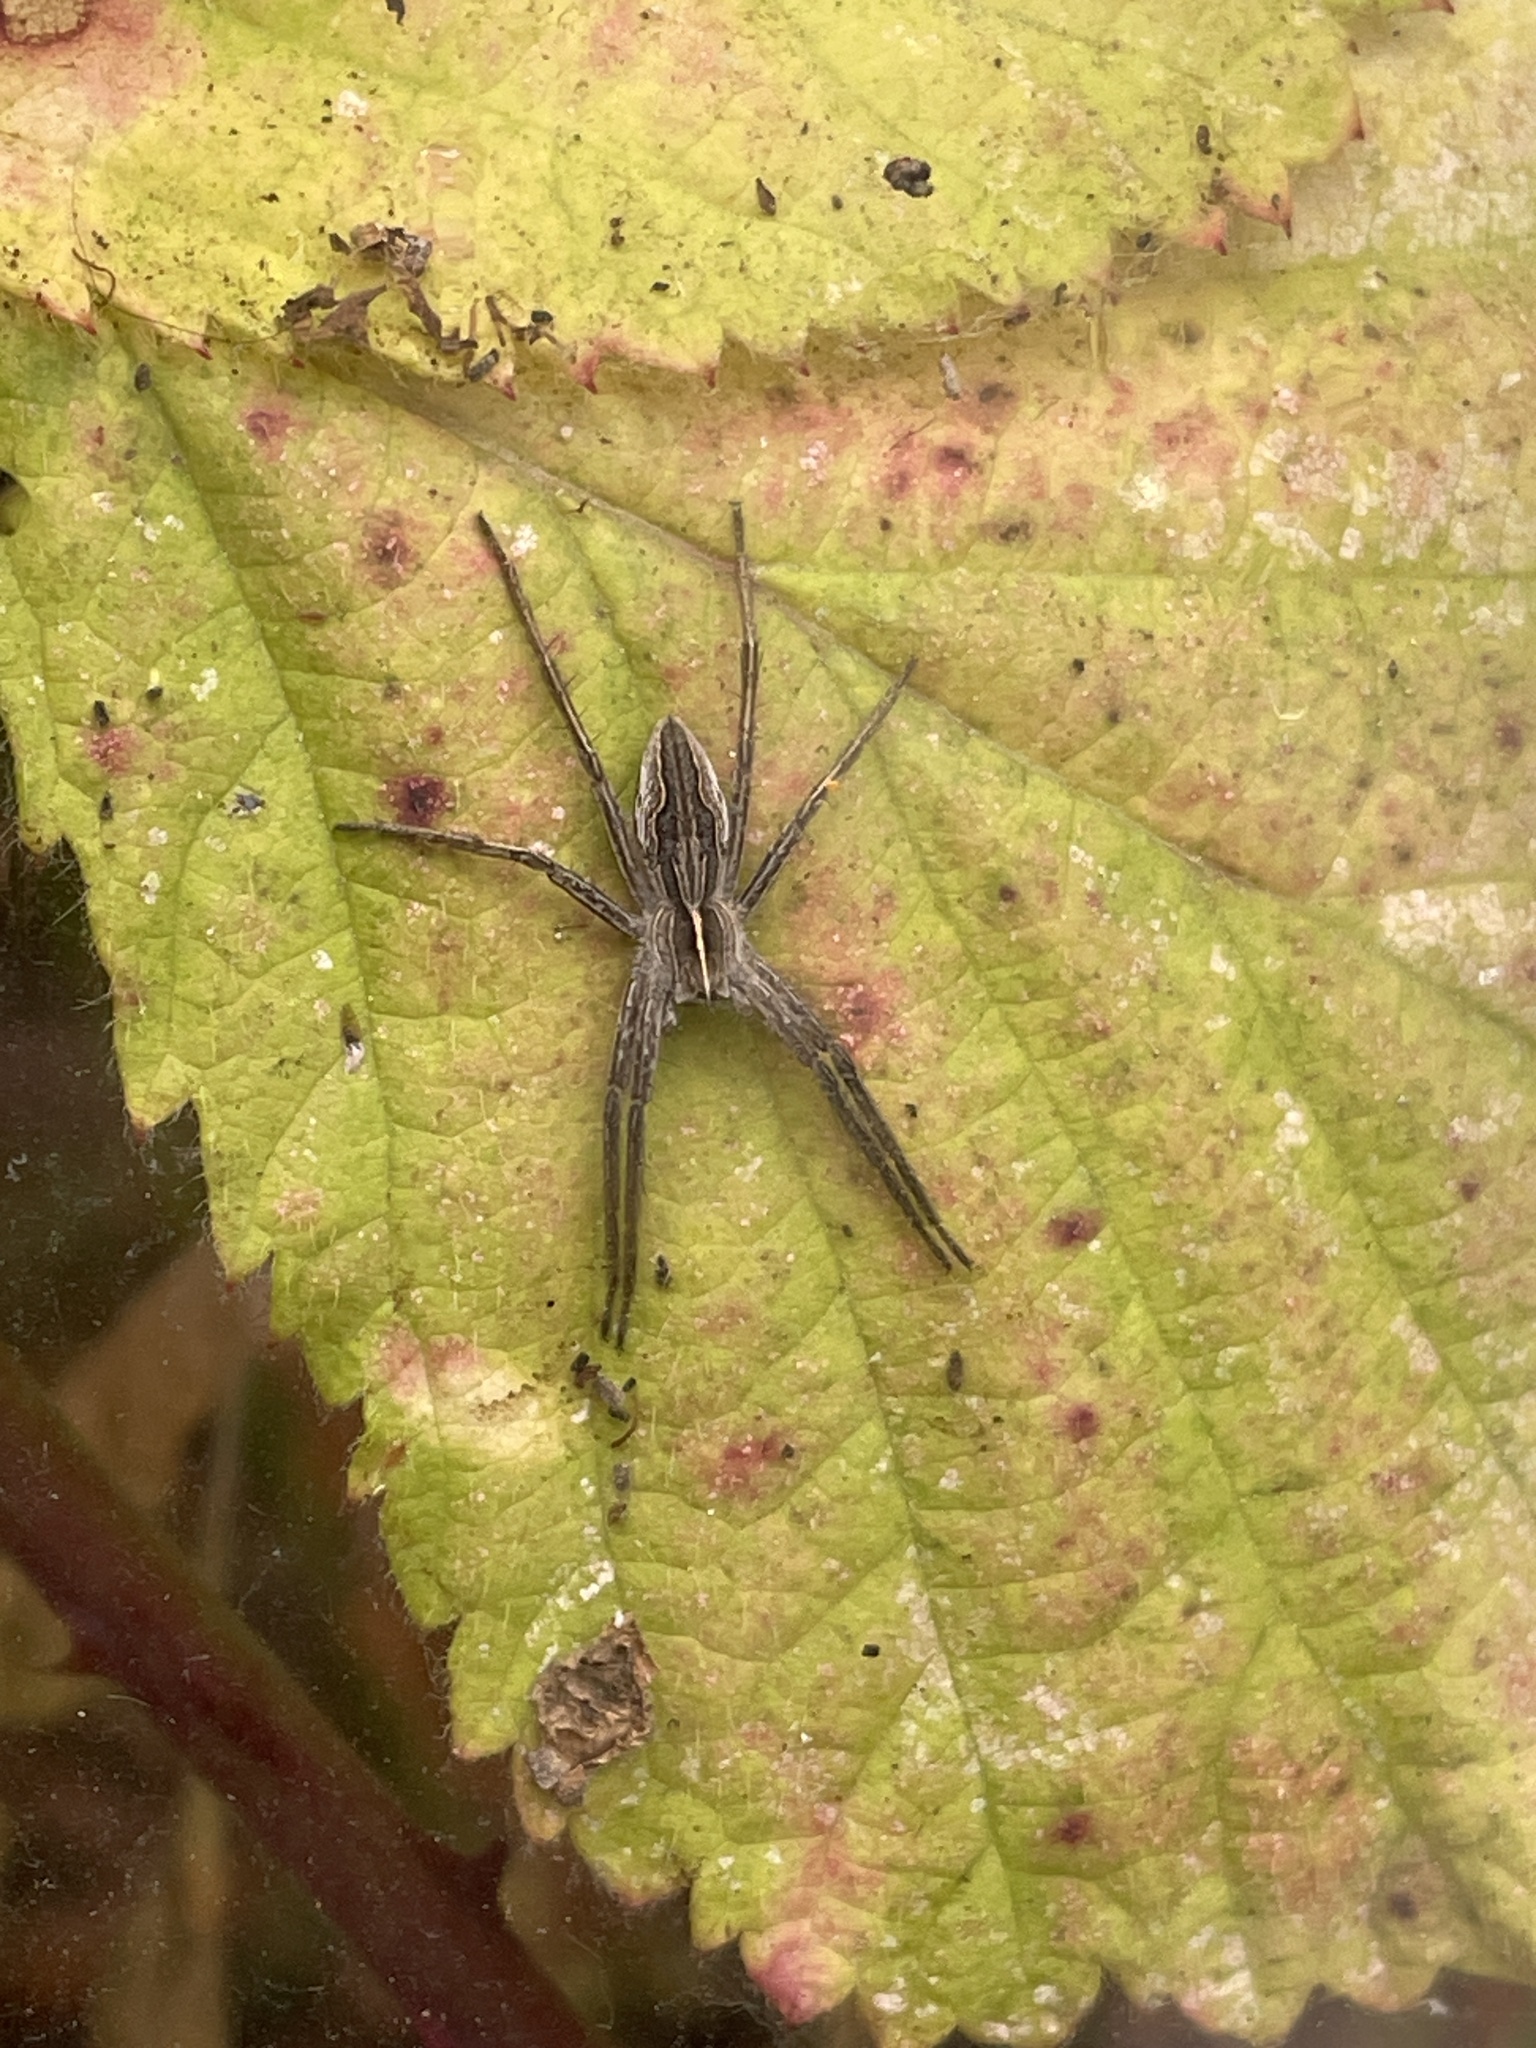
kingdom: Animalia
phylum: Arthropoda
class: Arachnida
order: Araneae
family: Pisauridae
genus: Pisaura
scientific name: Pisaura mirabilis
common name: Tent spider
